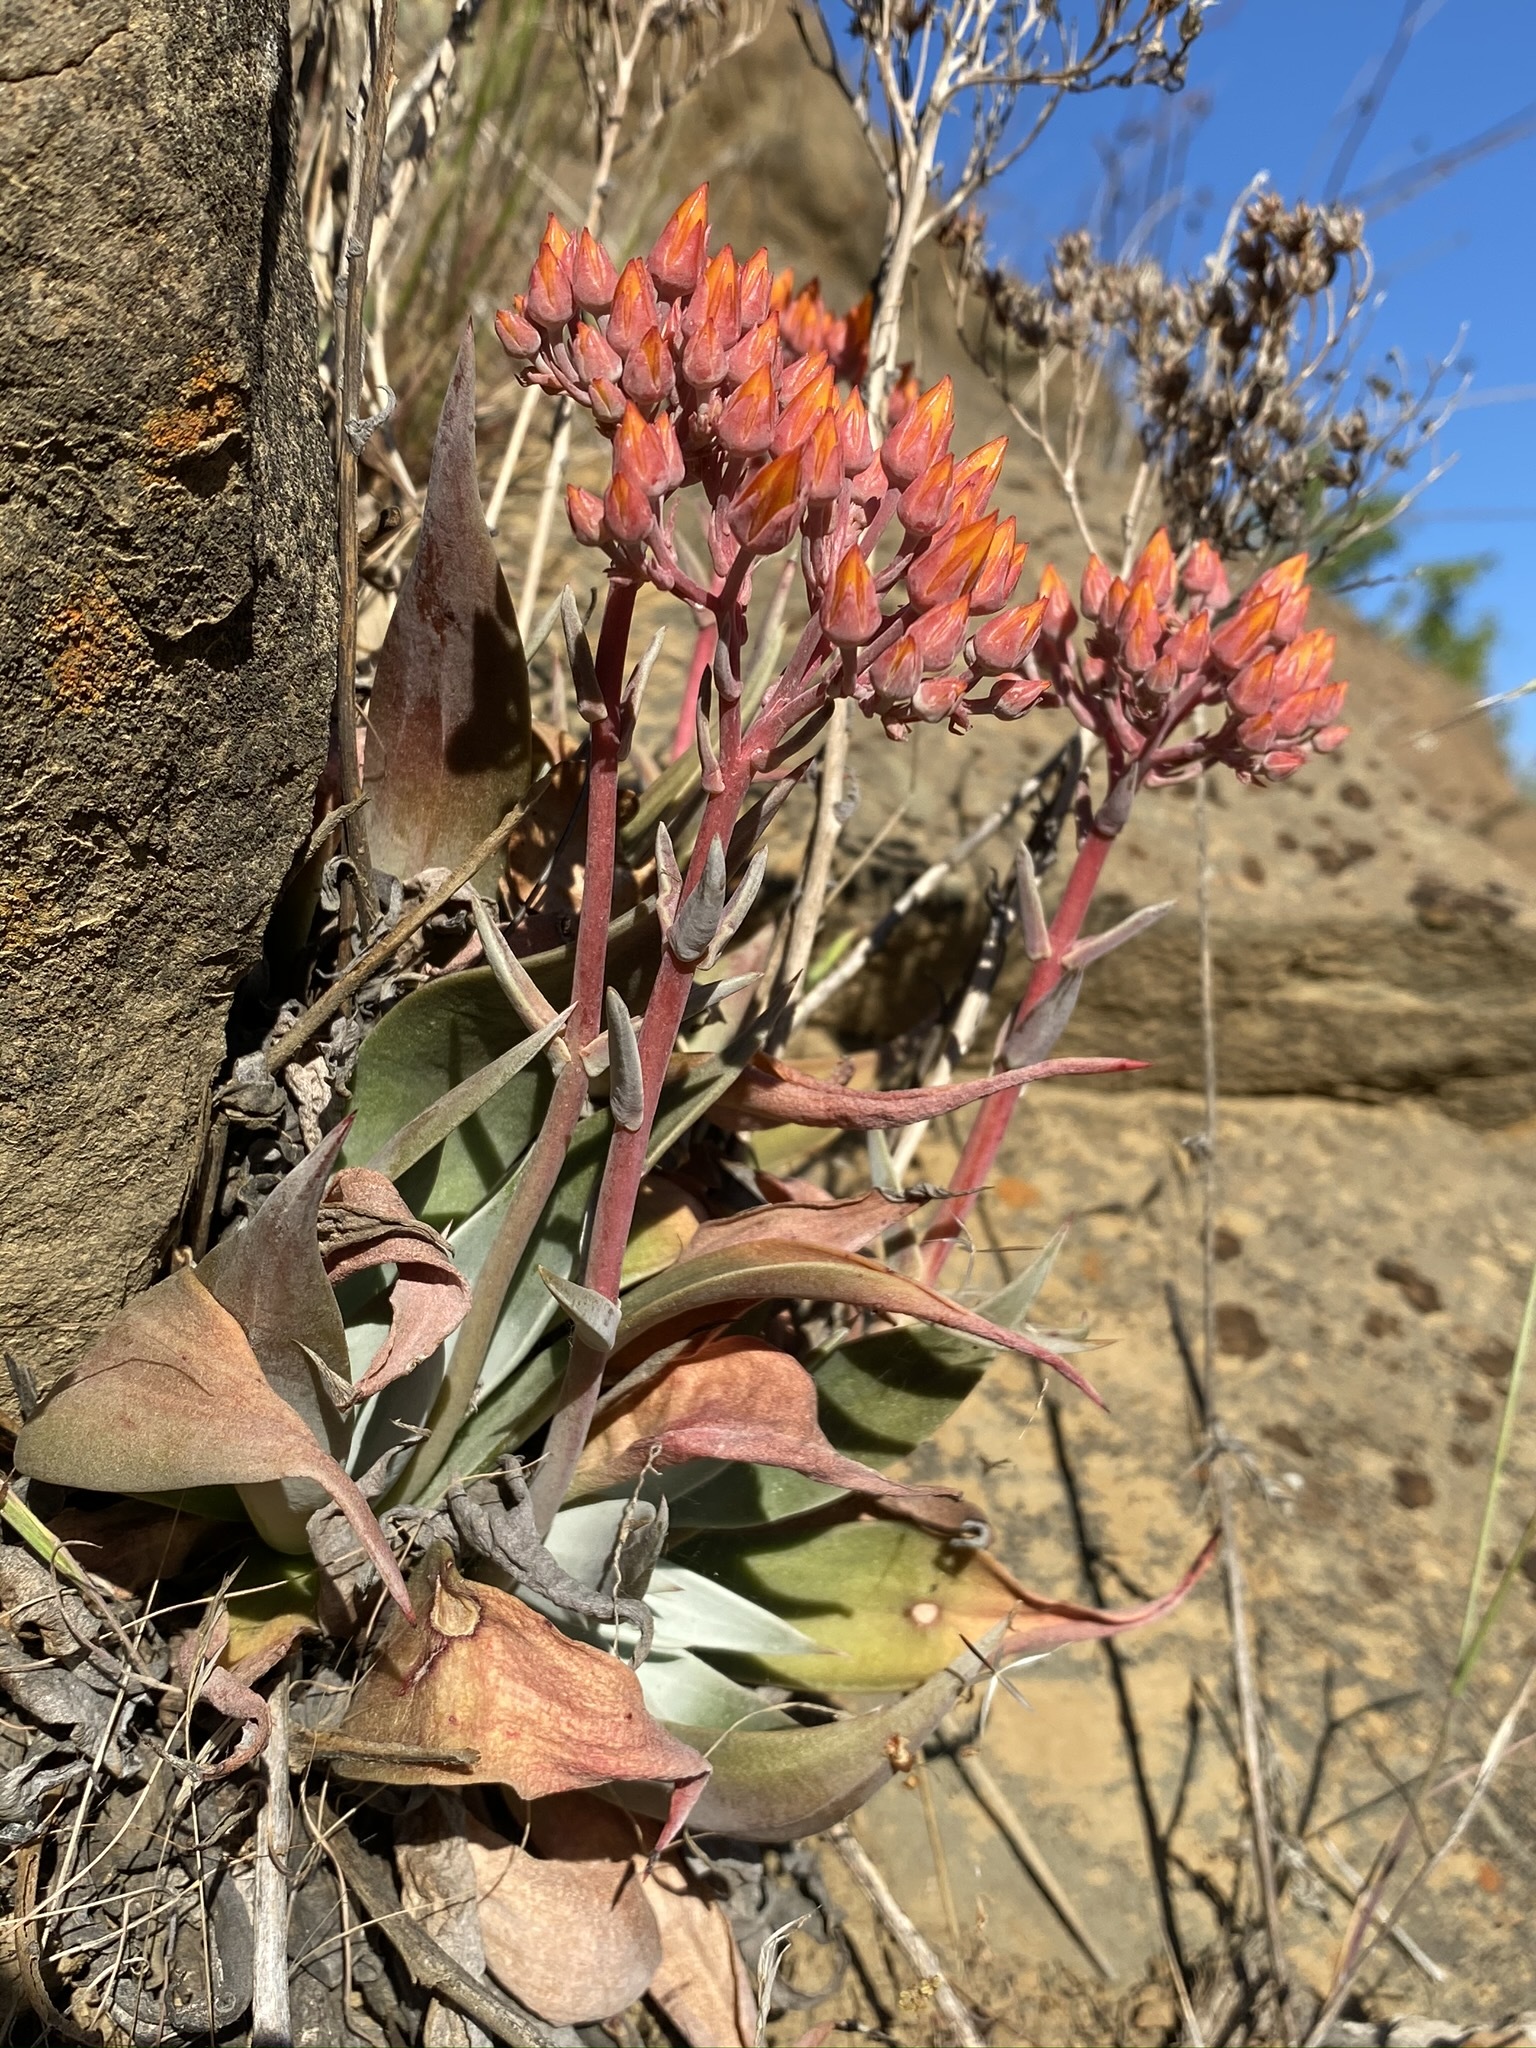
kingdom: Plantae
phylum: Tracheophyta
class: Magnoliopsida
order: Saxifragales
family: Crassulaceae
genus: Dudleya
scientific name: Dudleya cymosa
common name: Canyon dudleya
